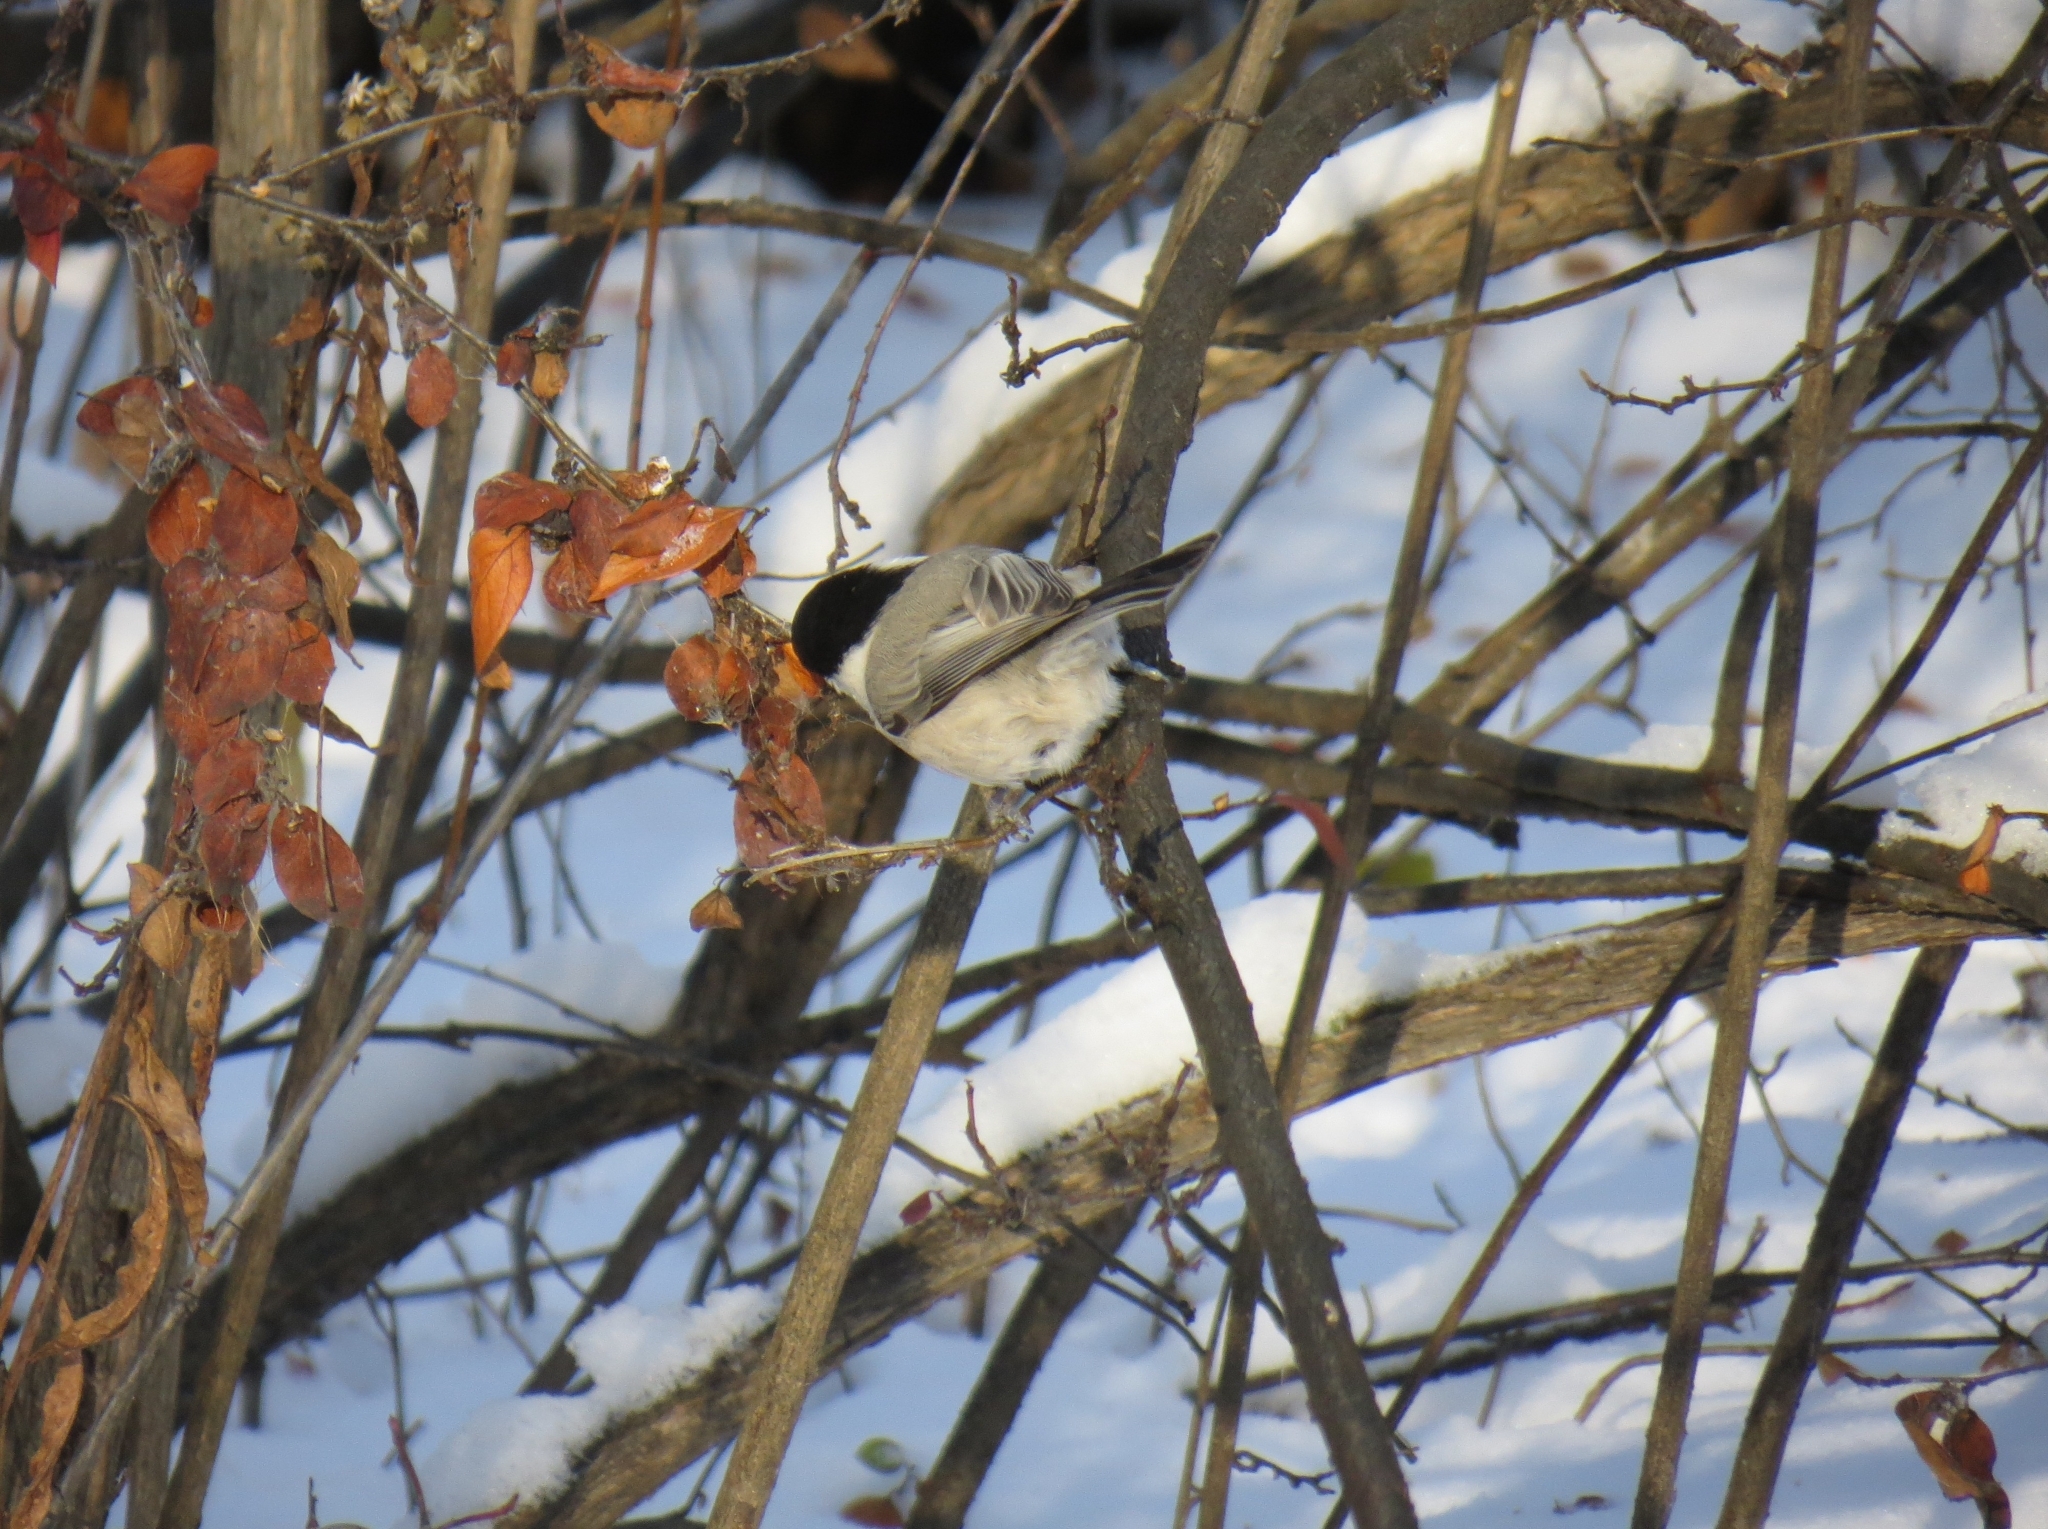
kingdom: Animalia
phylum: Chordata
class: Aves
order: Passeriformes
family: Paridae
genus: Poecile
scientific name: Poecile montanus
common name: Willow tit
